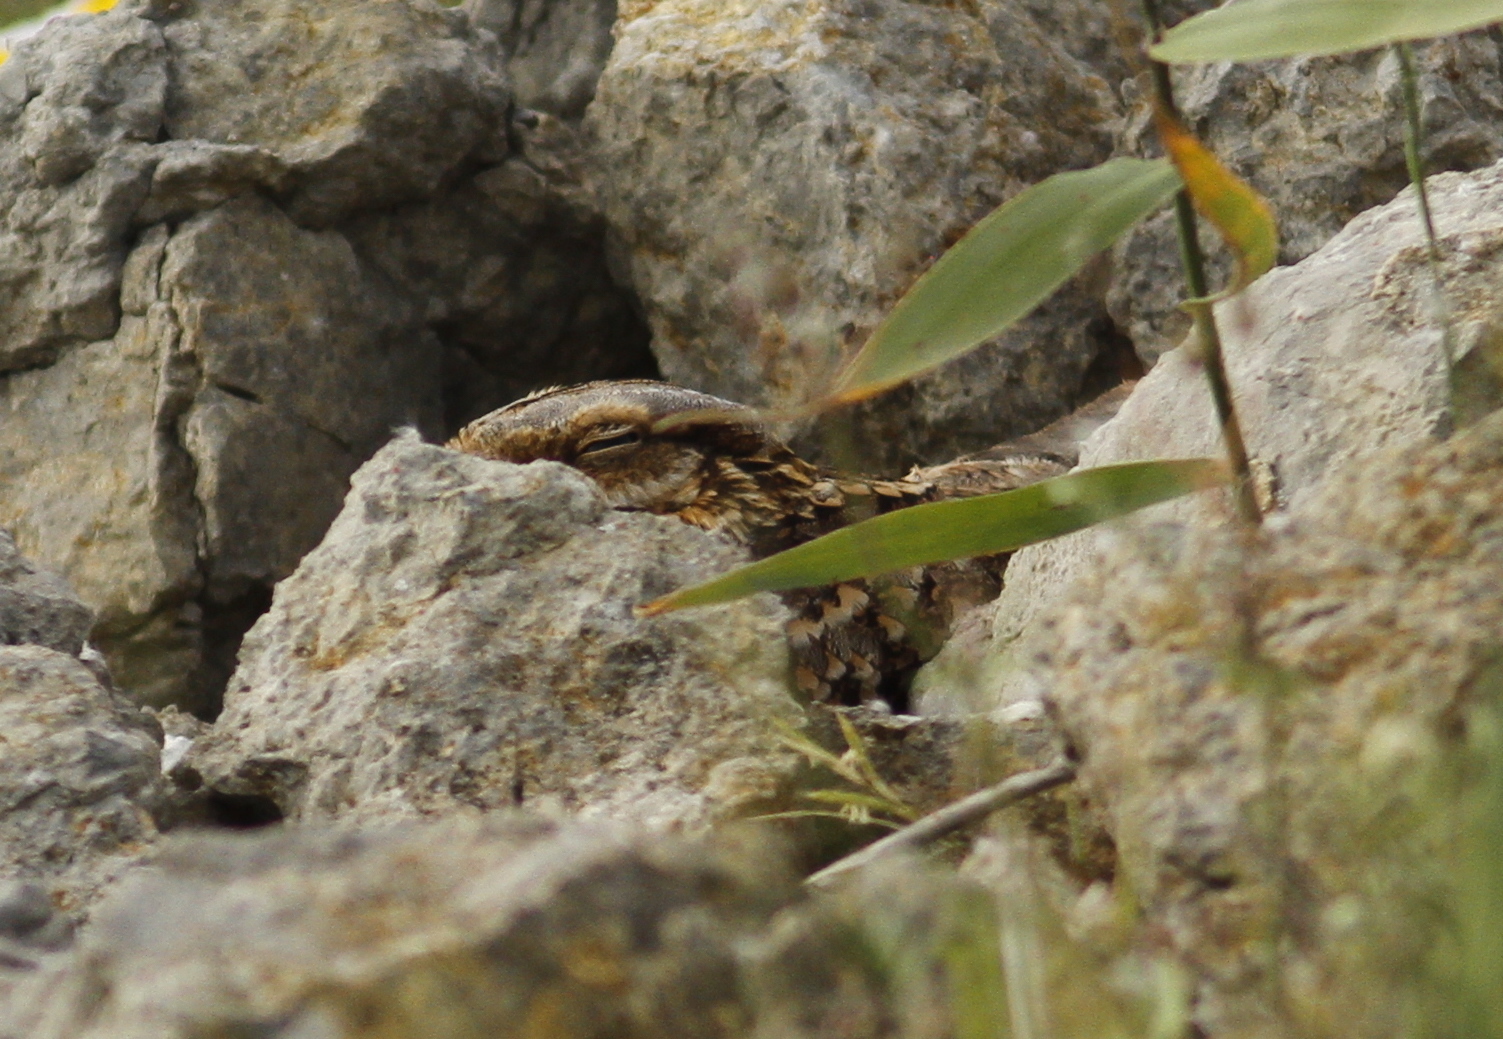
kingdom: Animalia
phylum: Chordata
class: Aves
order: Caprimulgiformes
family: Caprimulgidae
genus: Caprimulgus
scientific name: Caprimulgus ruficollis
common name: Red-necked nightjar
